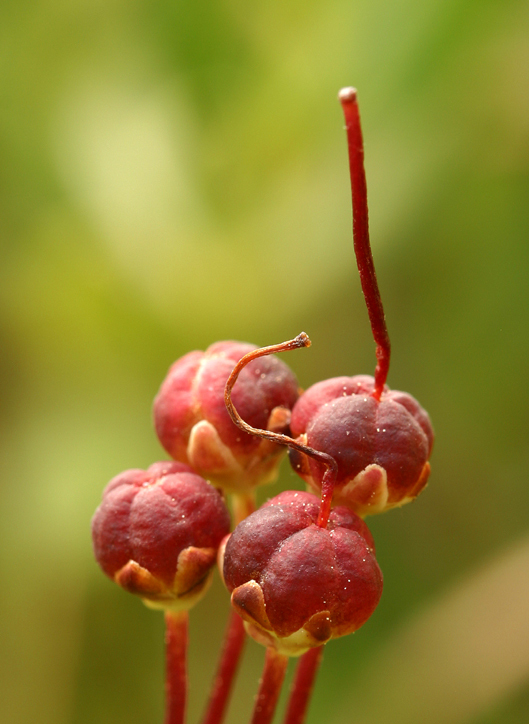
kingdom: Plantae
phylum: Tracheophyta
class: Magnoliopsida
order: Ericales
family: Ericaceae
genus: Kalmia
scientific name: Kalmia microphylla
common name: Alpine bog laurel
